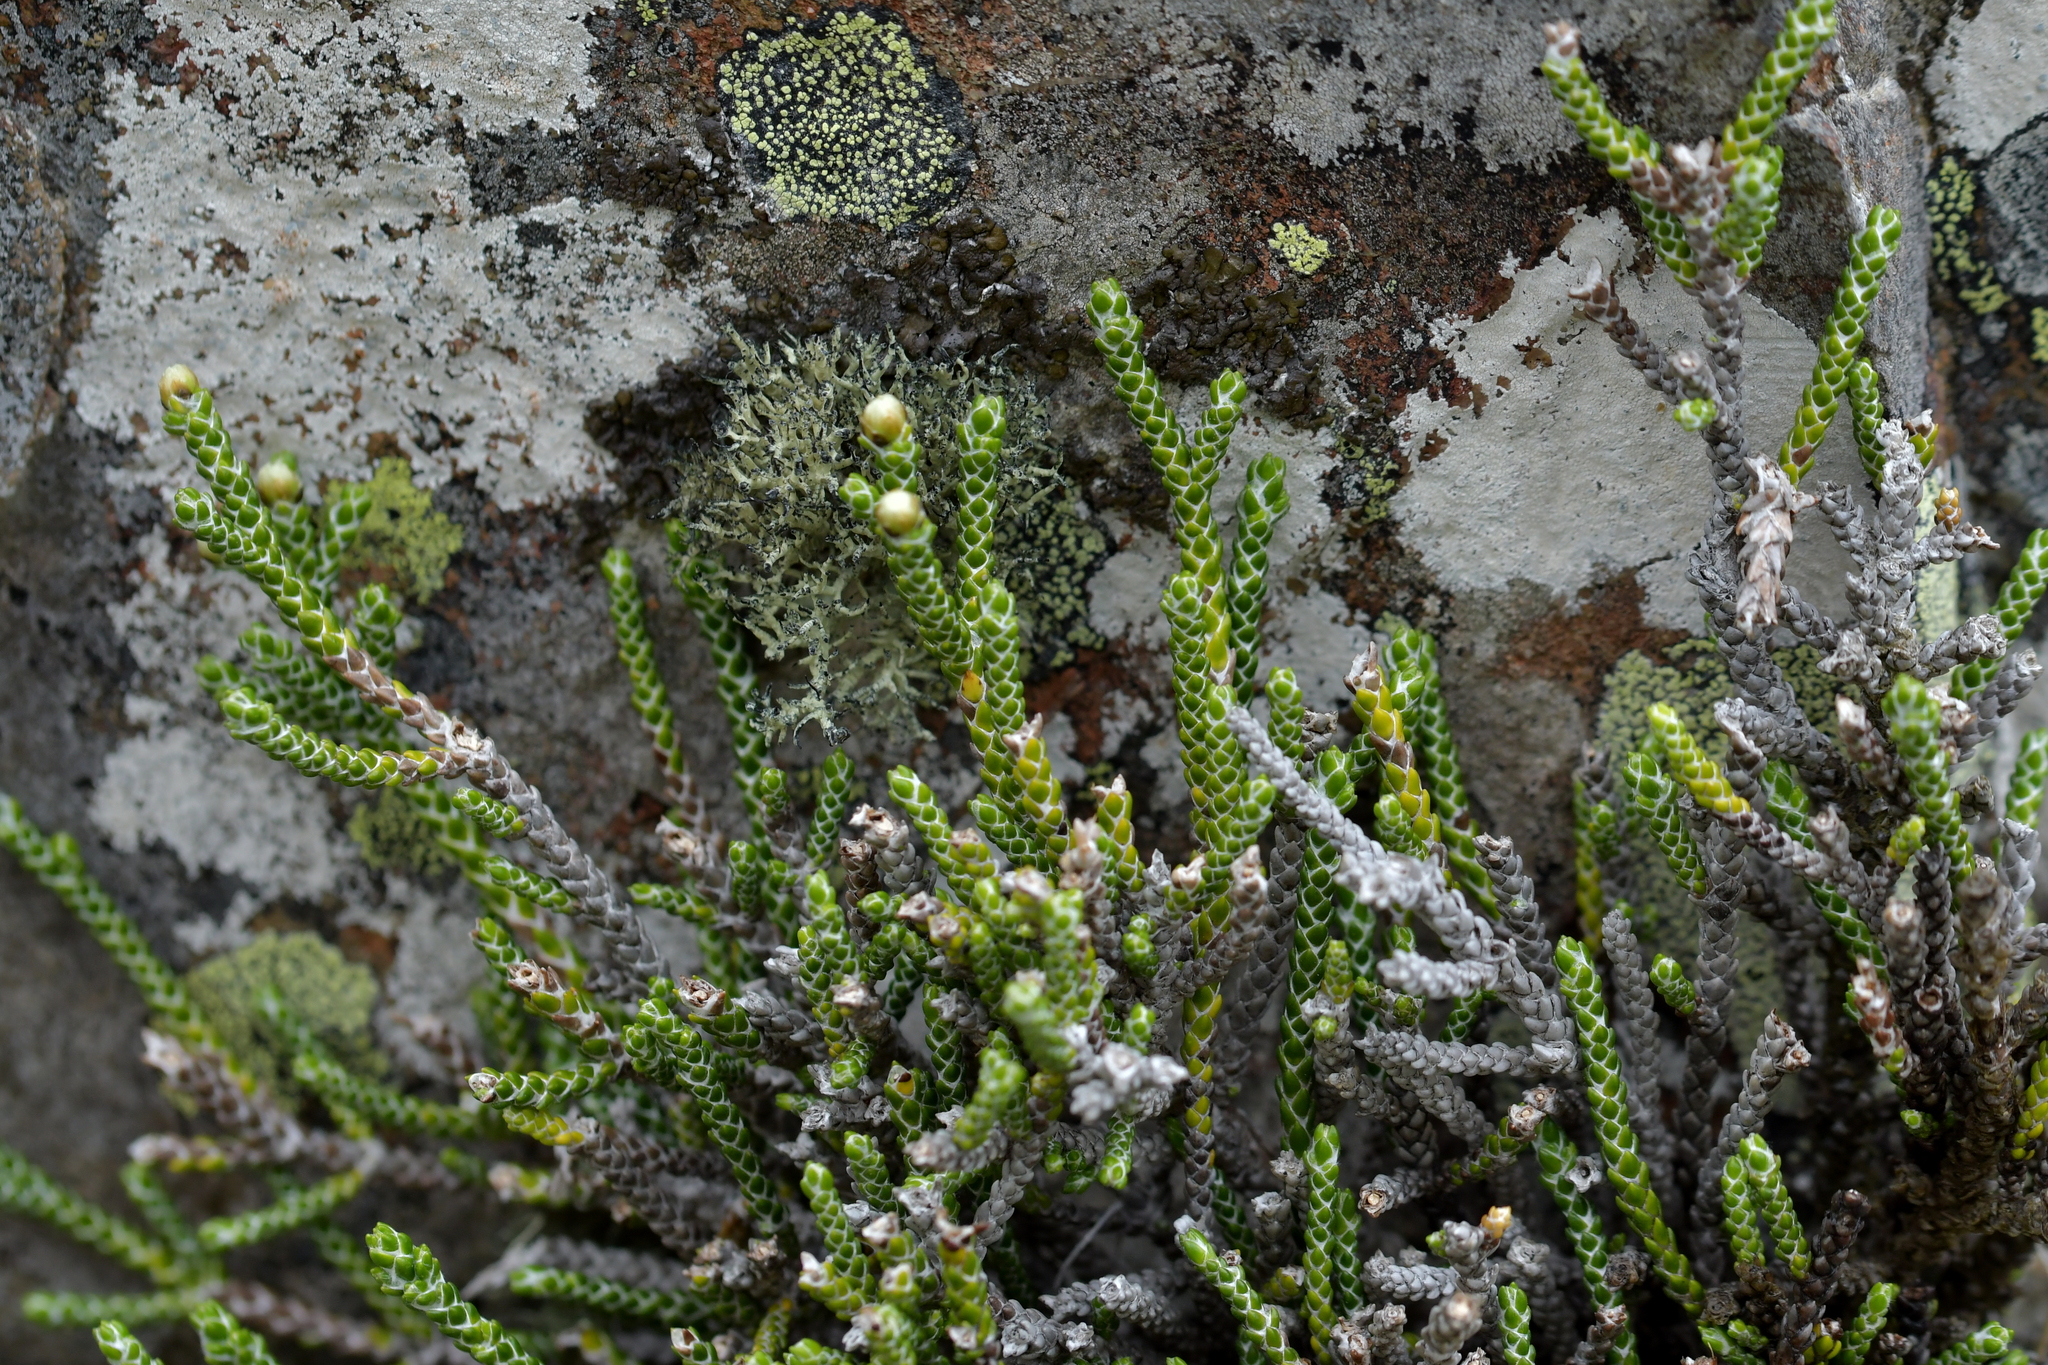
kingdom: Plantae
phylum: Tracheophyta
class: Magnoliopsida
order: Asterales
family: Asteraceae
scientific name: Asteraceae
